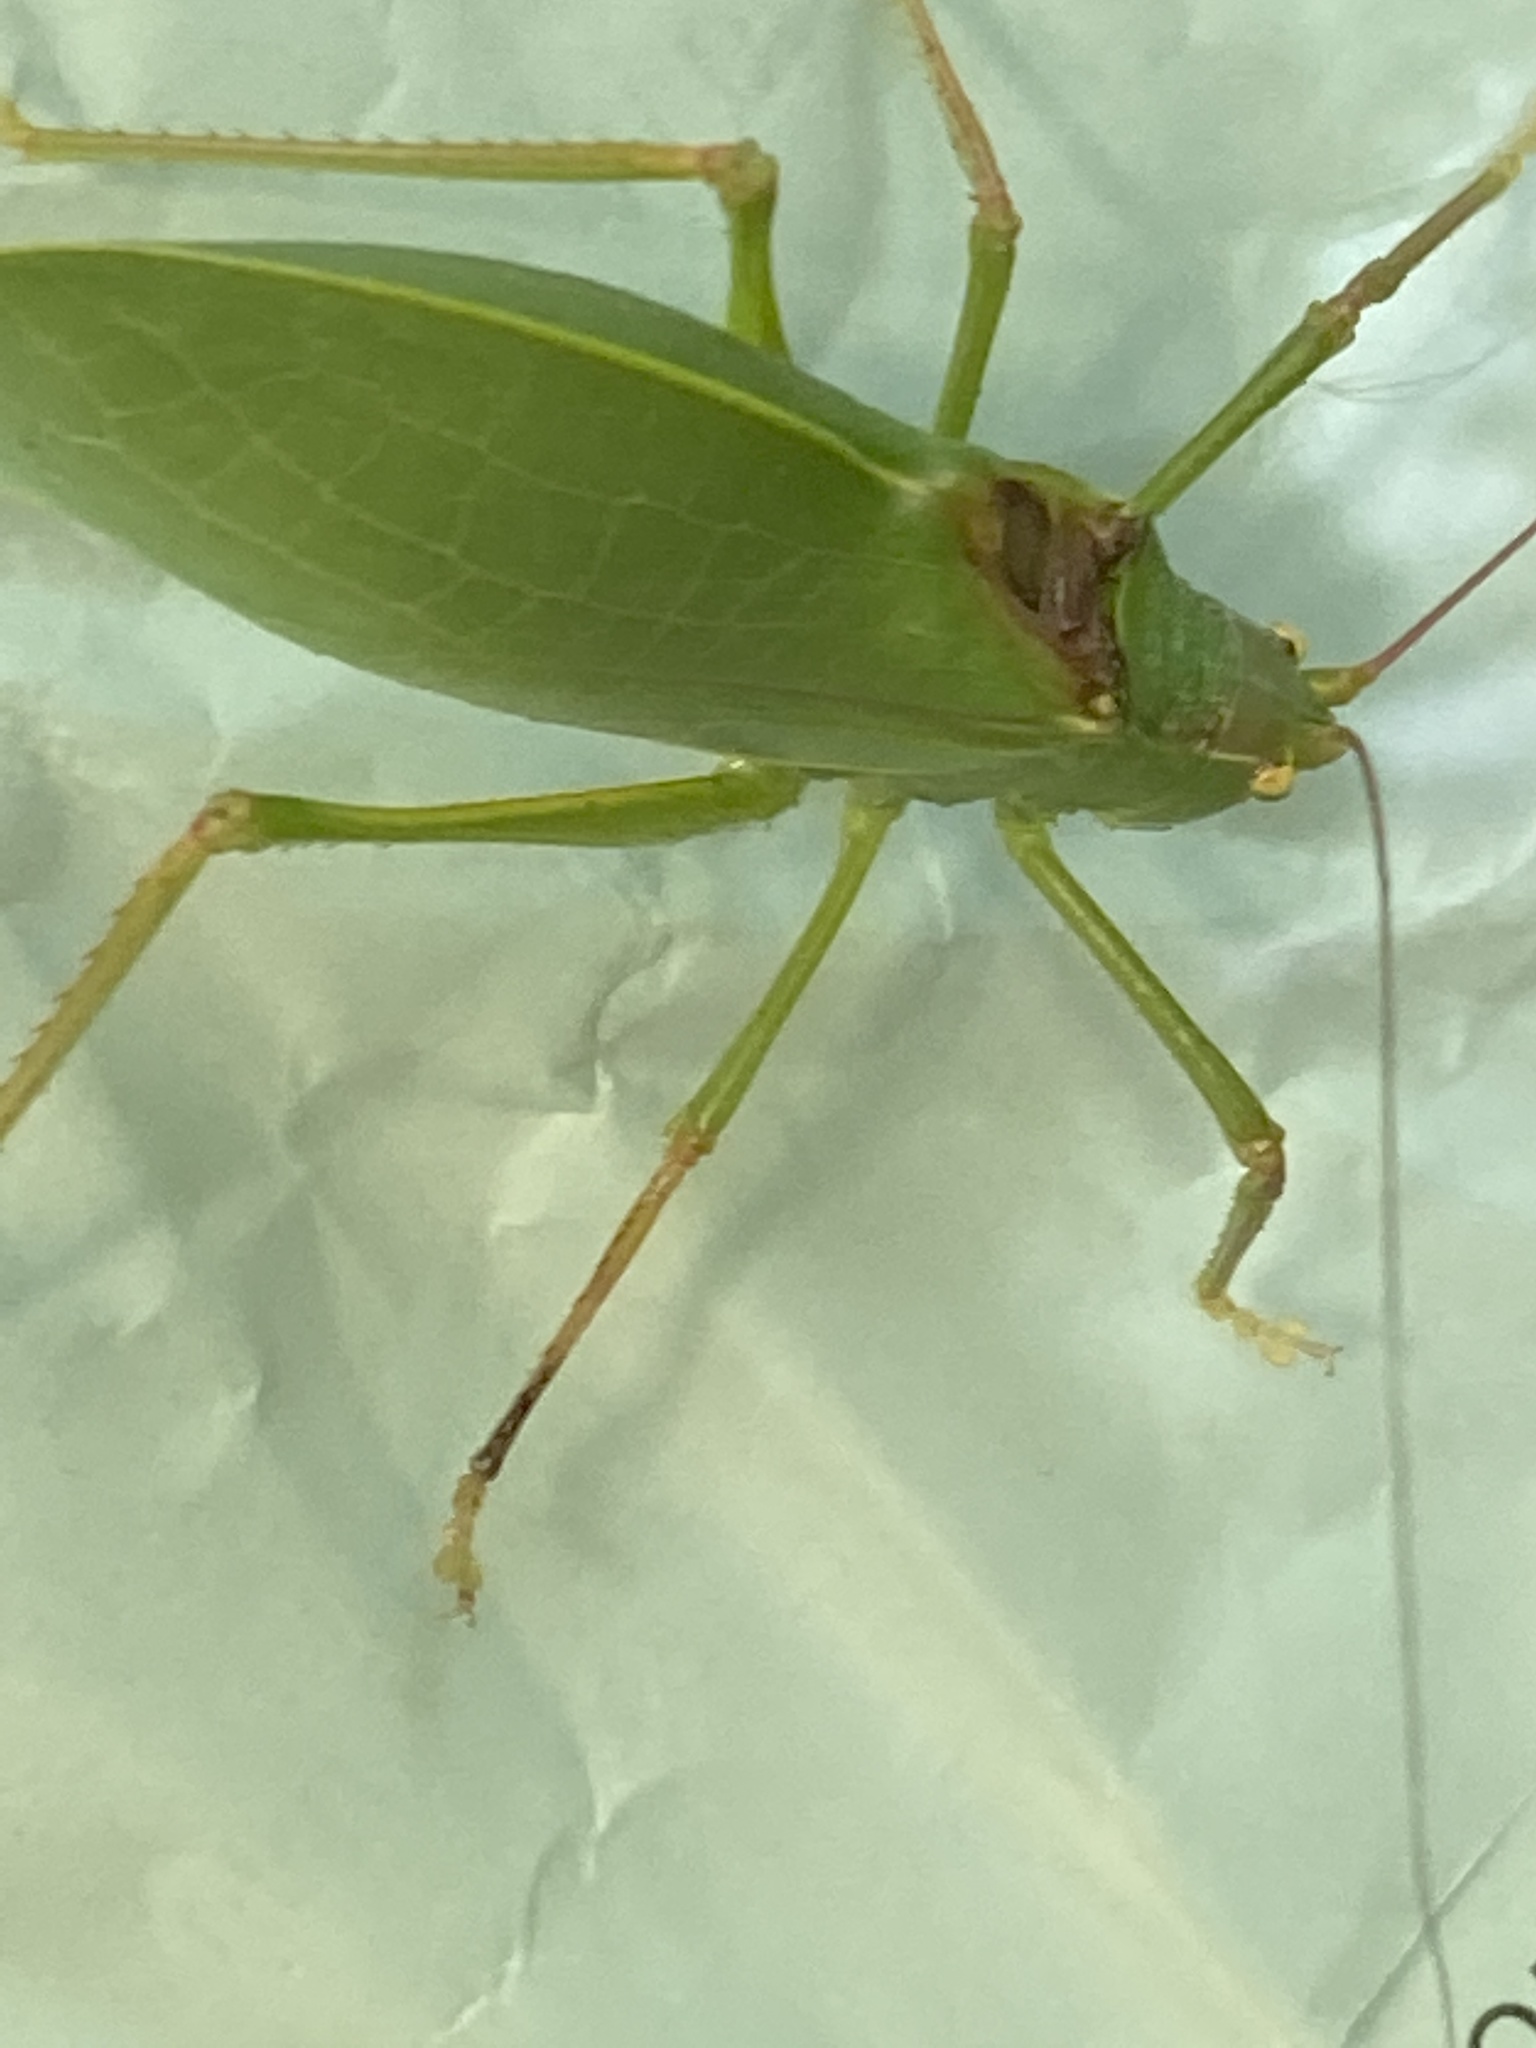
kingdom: Animalia
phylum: Arthropoda
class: Insecta
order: Orthoptera
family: Tettigoniidae
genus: Pterophylla
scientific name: Pterophylla camellifolia
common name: Common true katydid
